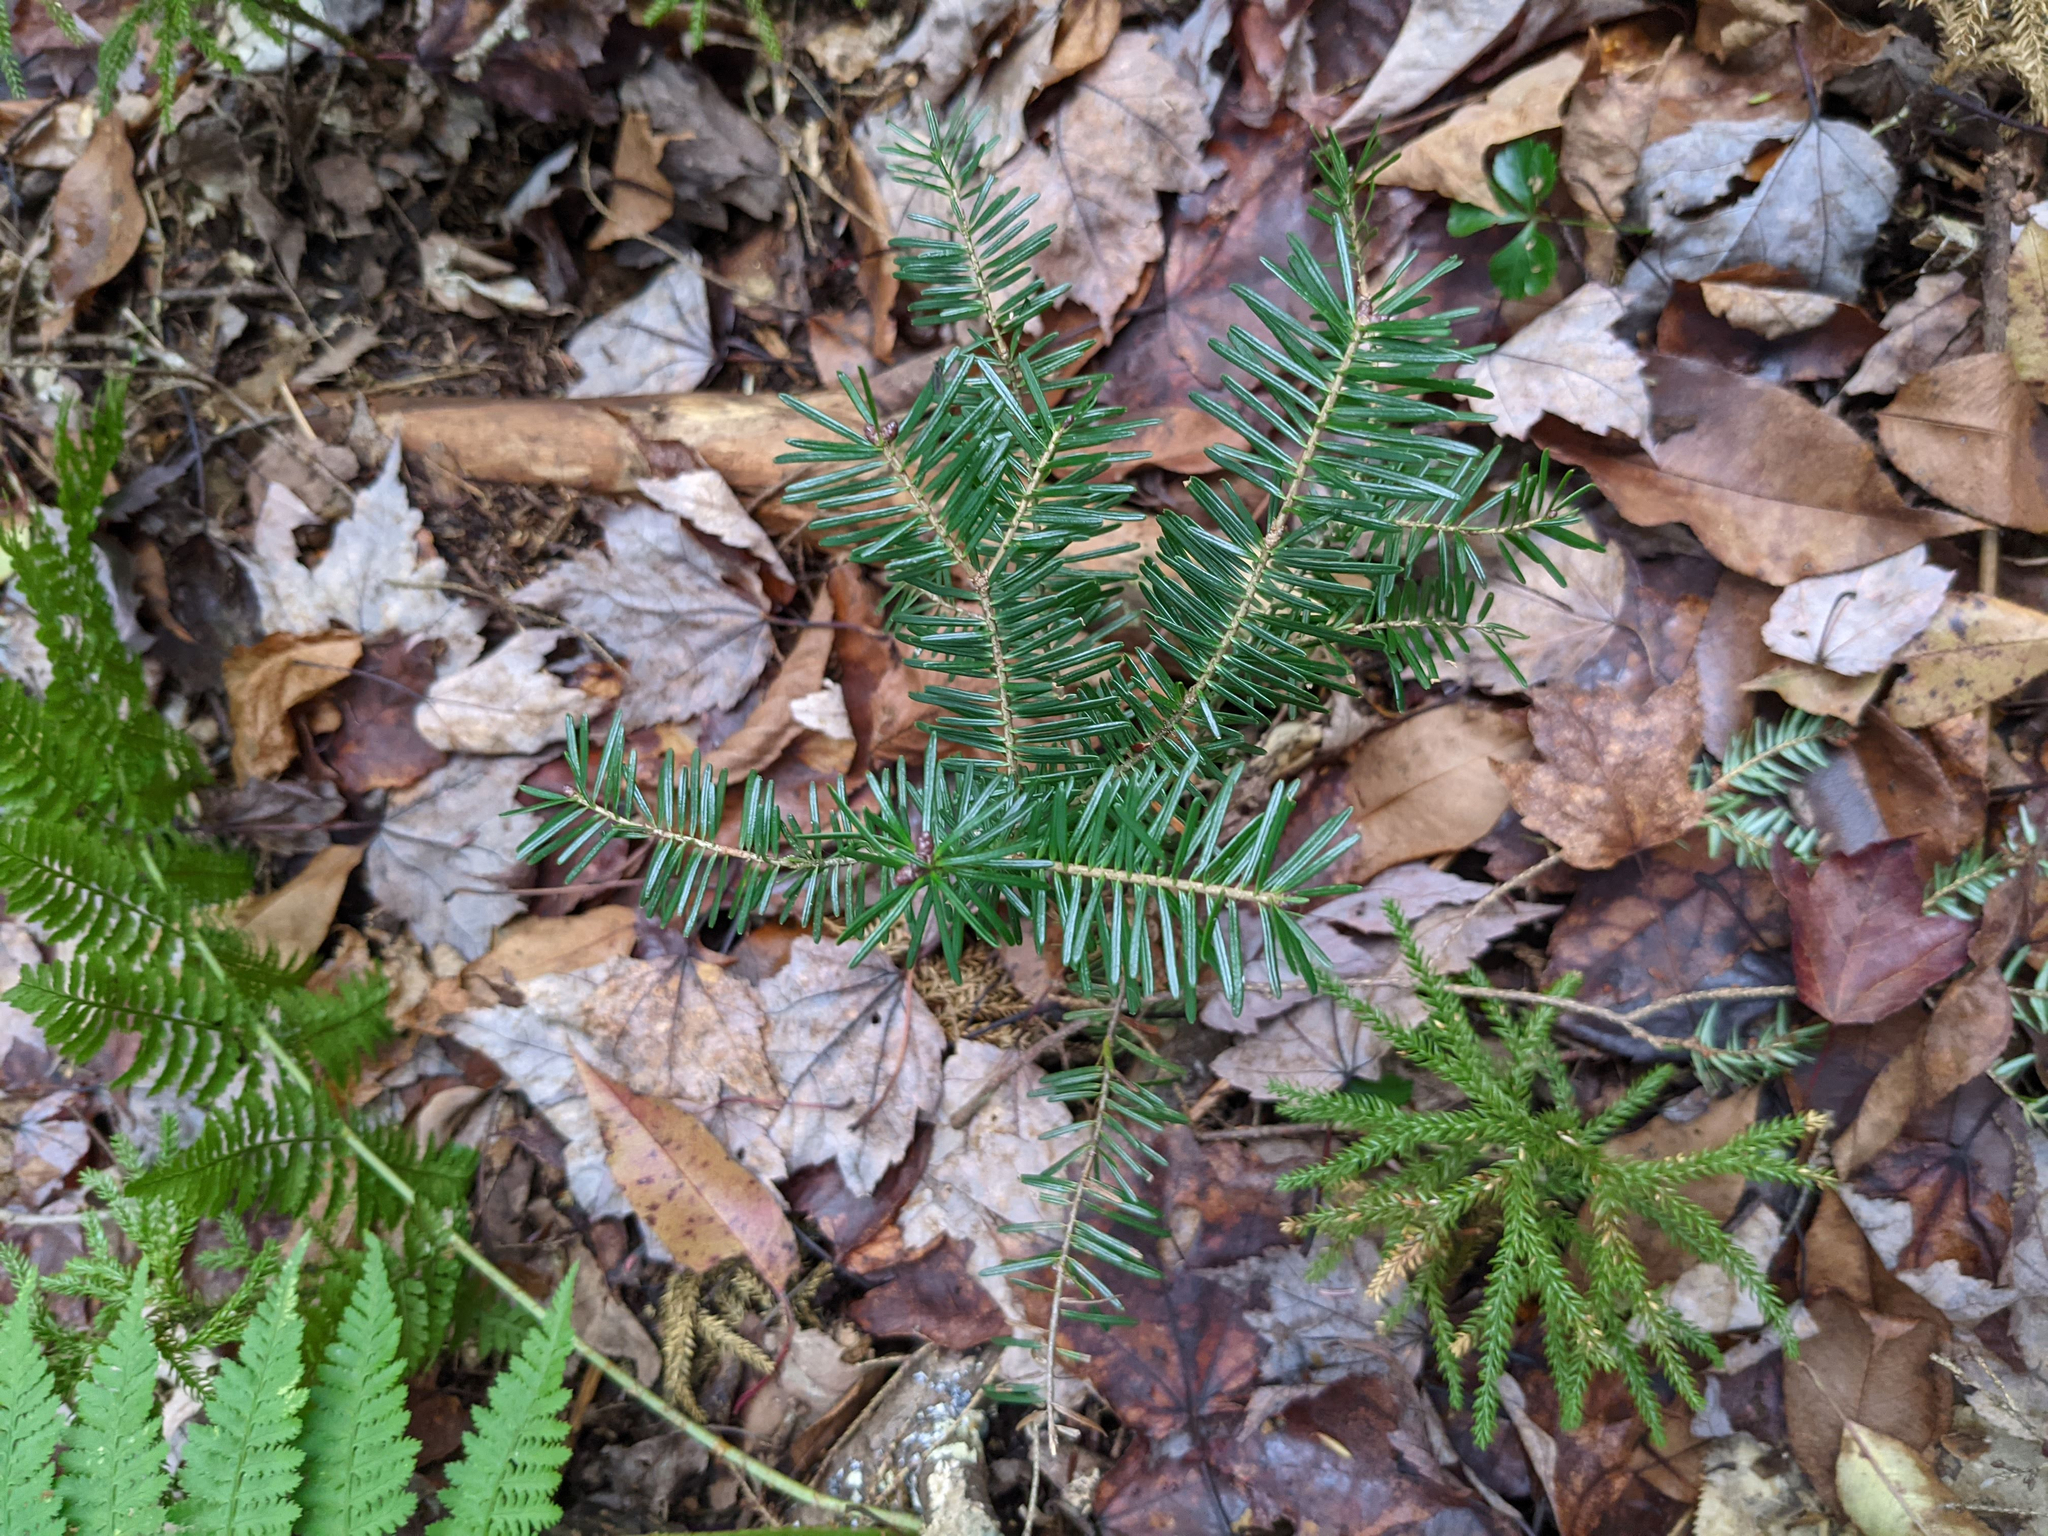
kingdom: Plantae
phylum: Tracheophyta
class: Pinopsida
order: Pinales
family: Pinaceae
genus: Abies
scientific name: Abies balsamea
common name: Balsam fir
